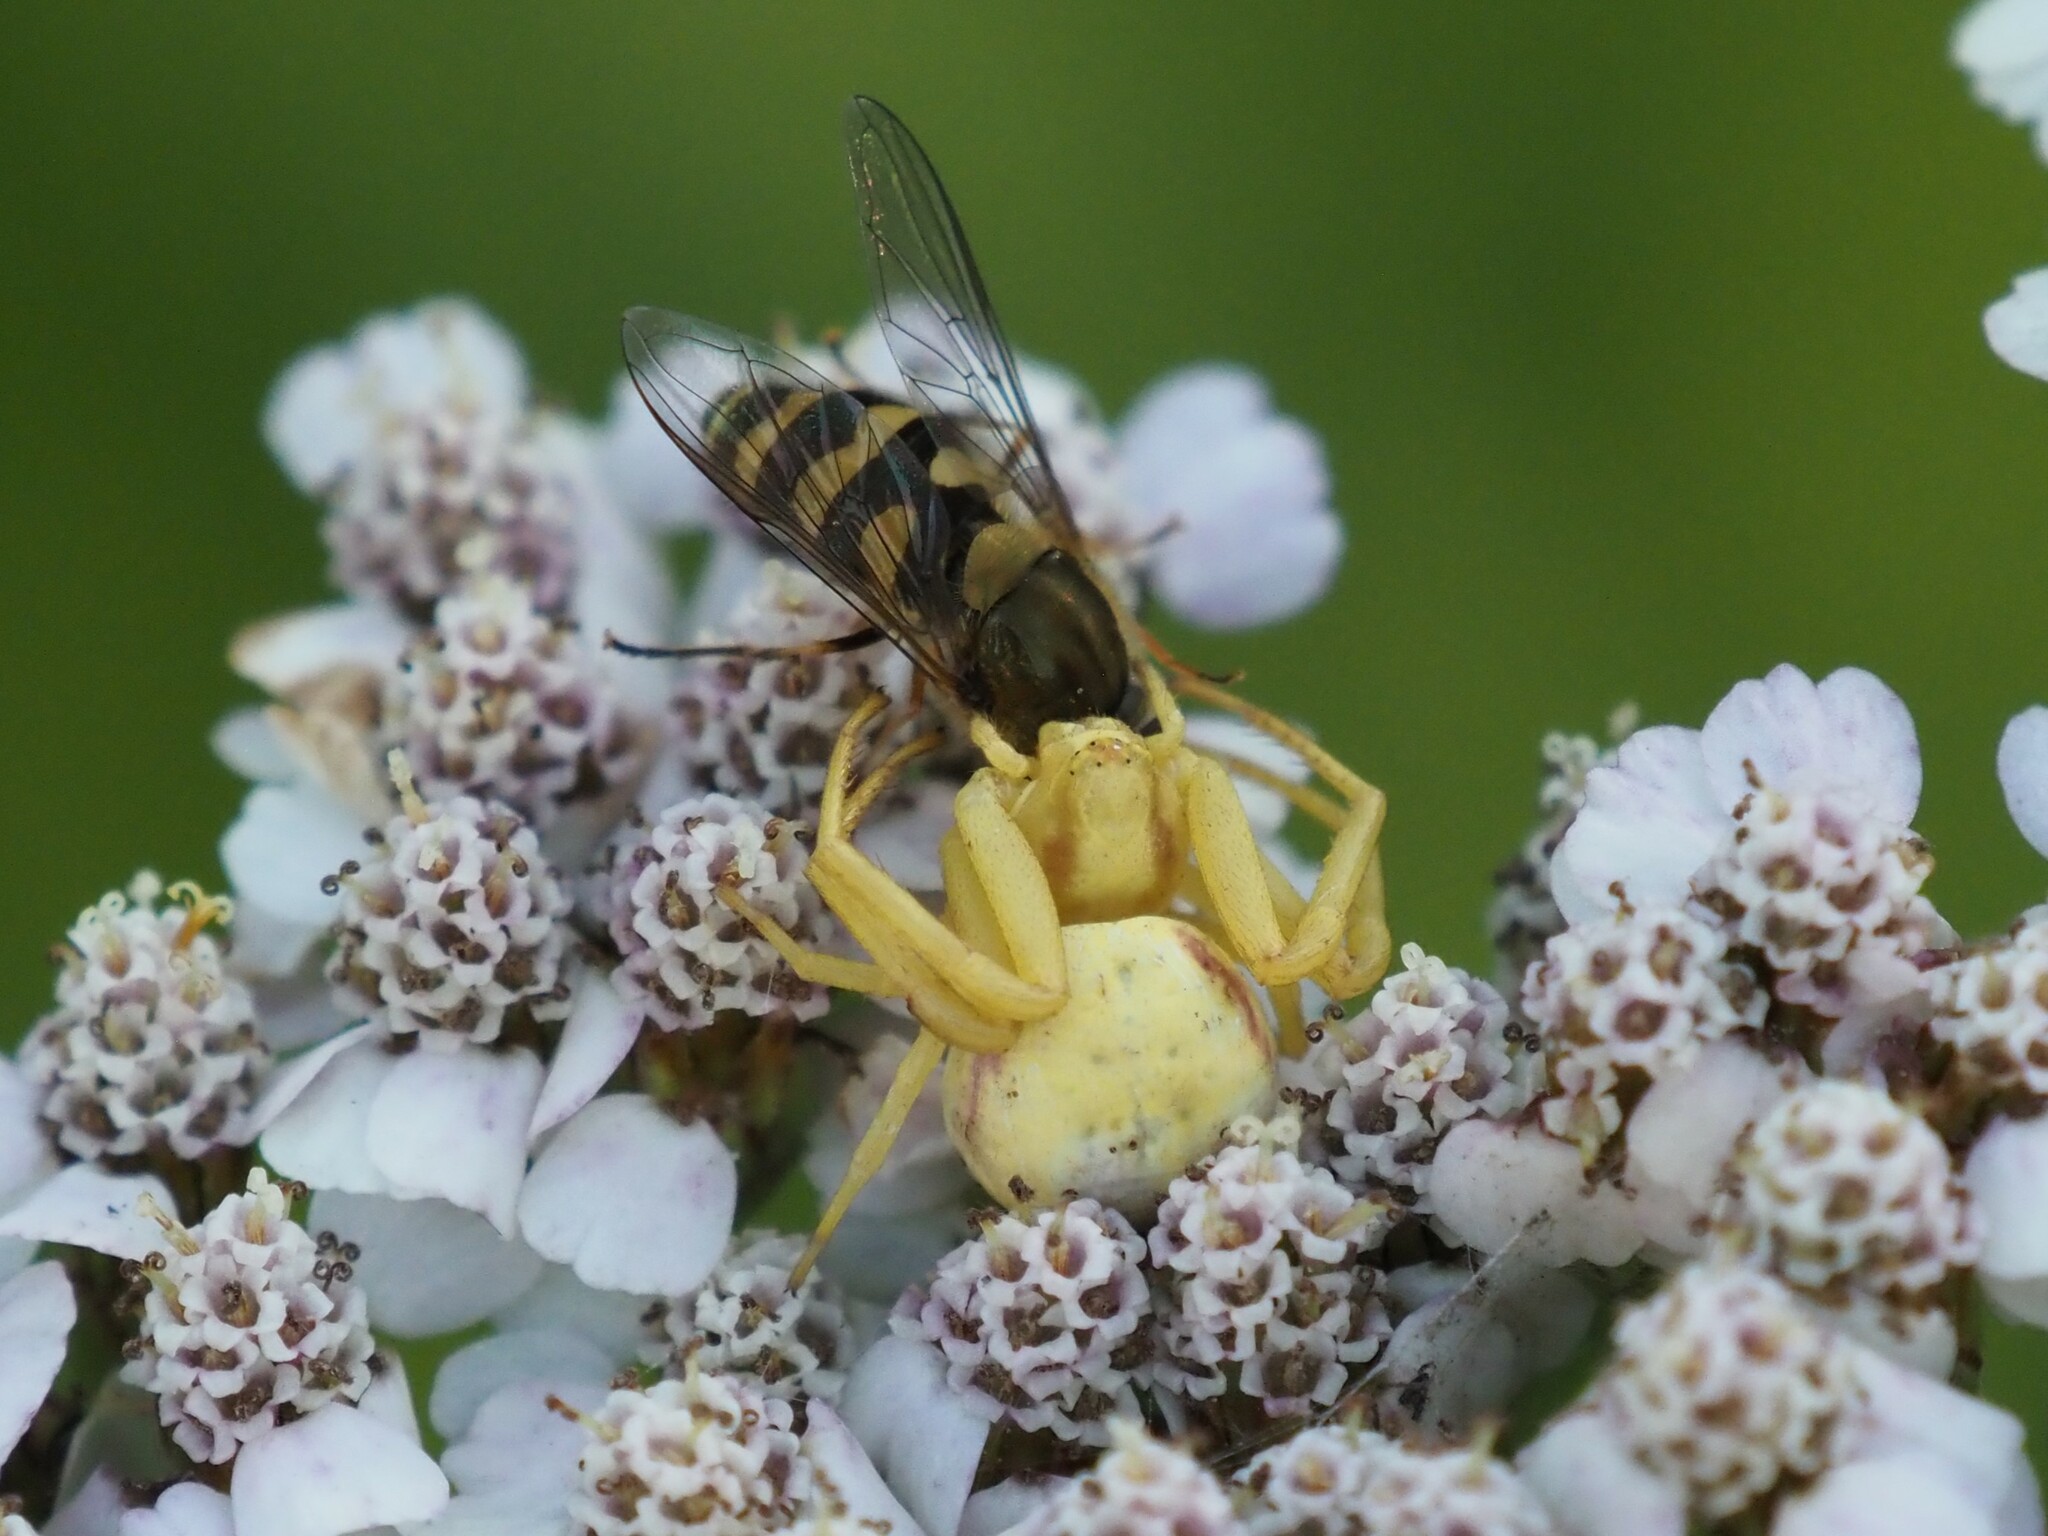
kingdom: Animalia
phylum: Arthropoda
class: Arachnida
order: Araneae
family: Thomisidae
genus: Misumena
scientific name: Misumena vatia
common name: Goldenrod crab spider
